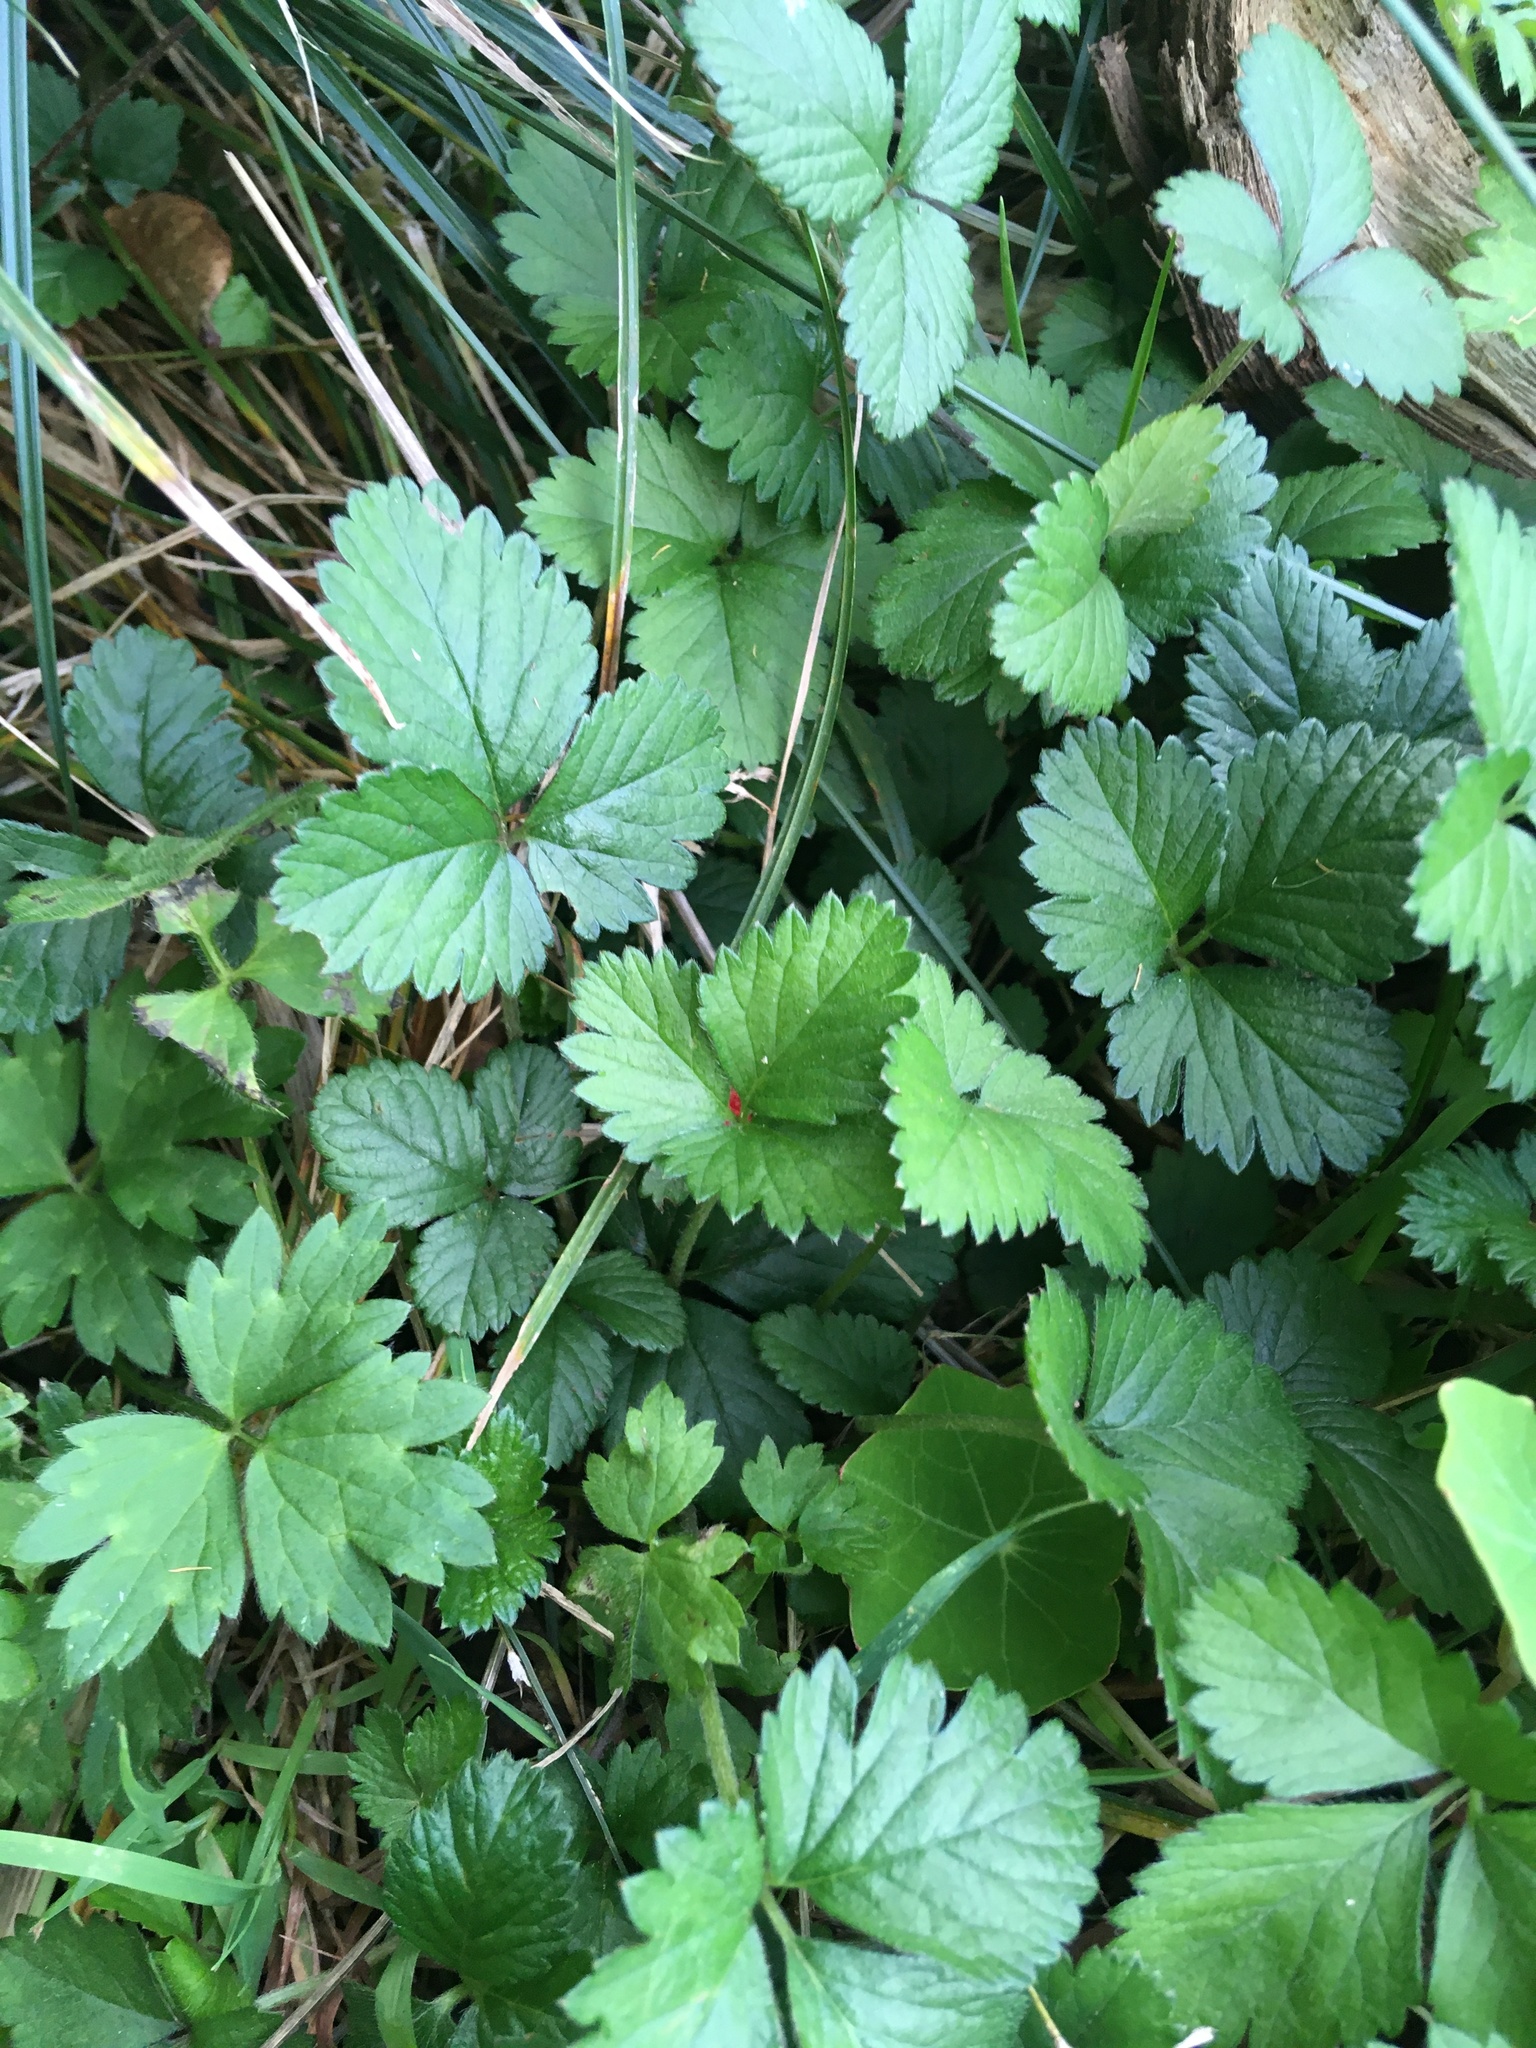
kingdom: Plantae
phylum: Tracheophyta
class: Magnoliopsida
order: Rosales
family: Rosaceae
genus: Potentilla
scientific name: Potentilla indica
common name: Yellow-flowered strawberry
